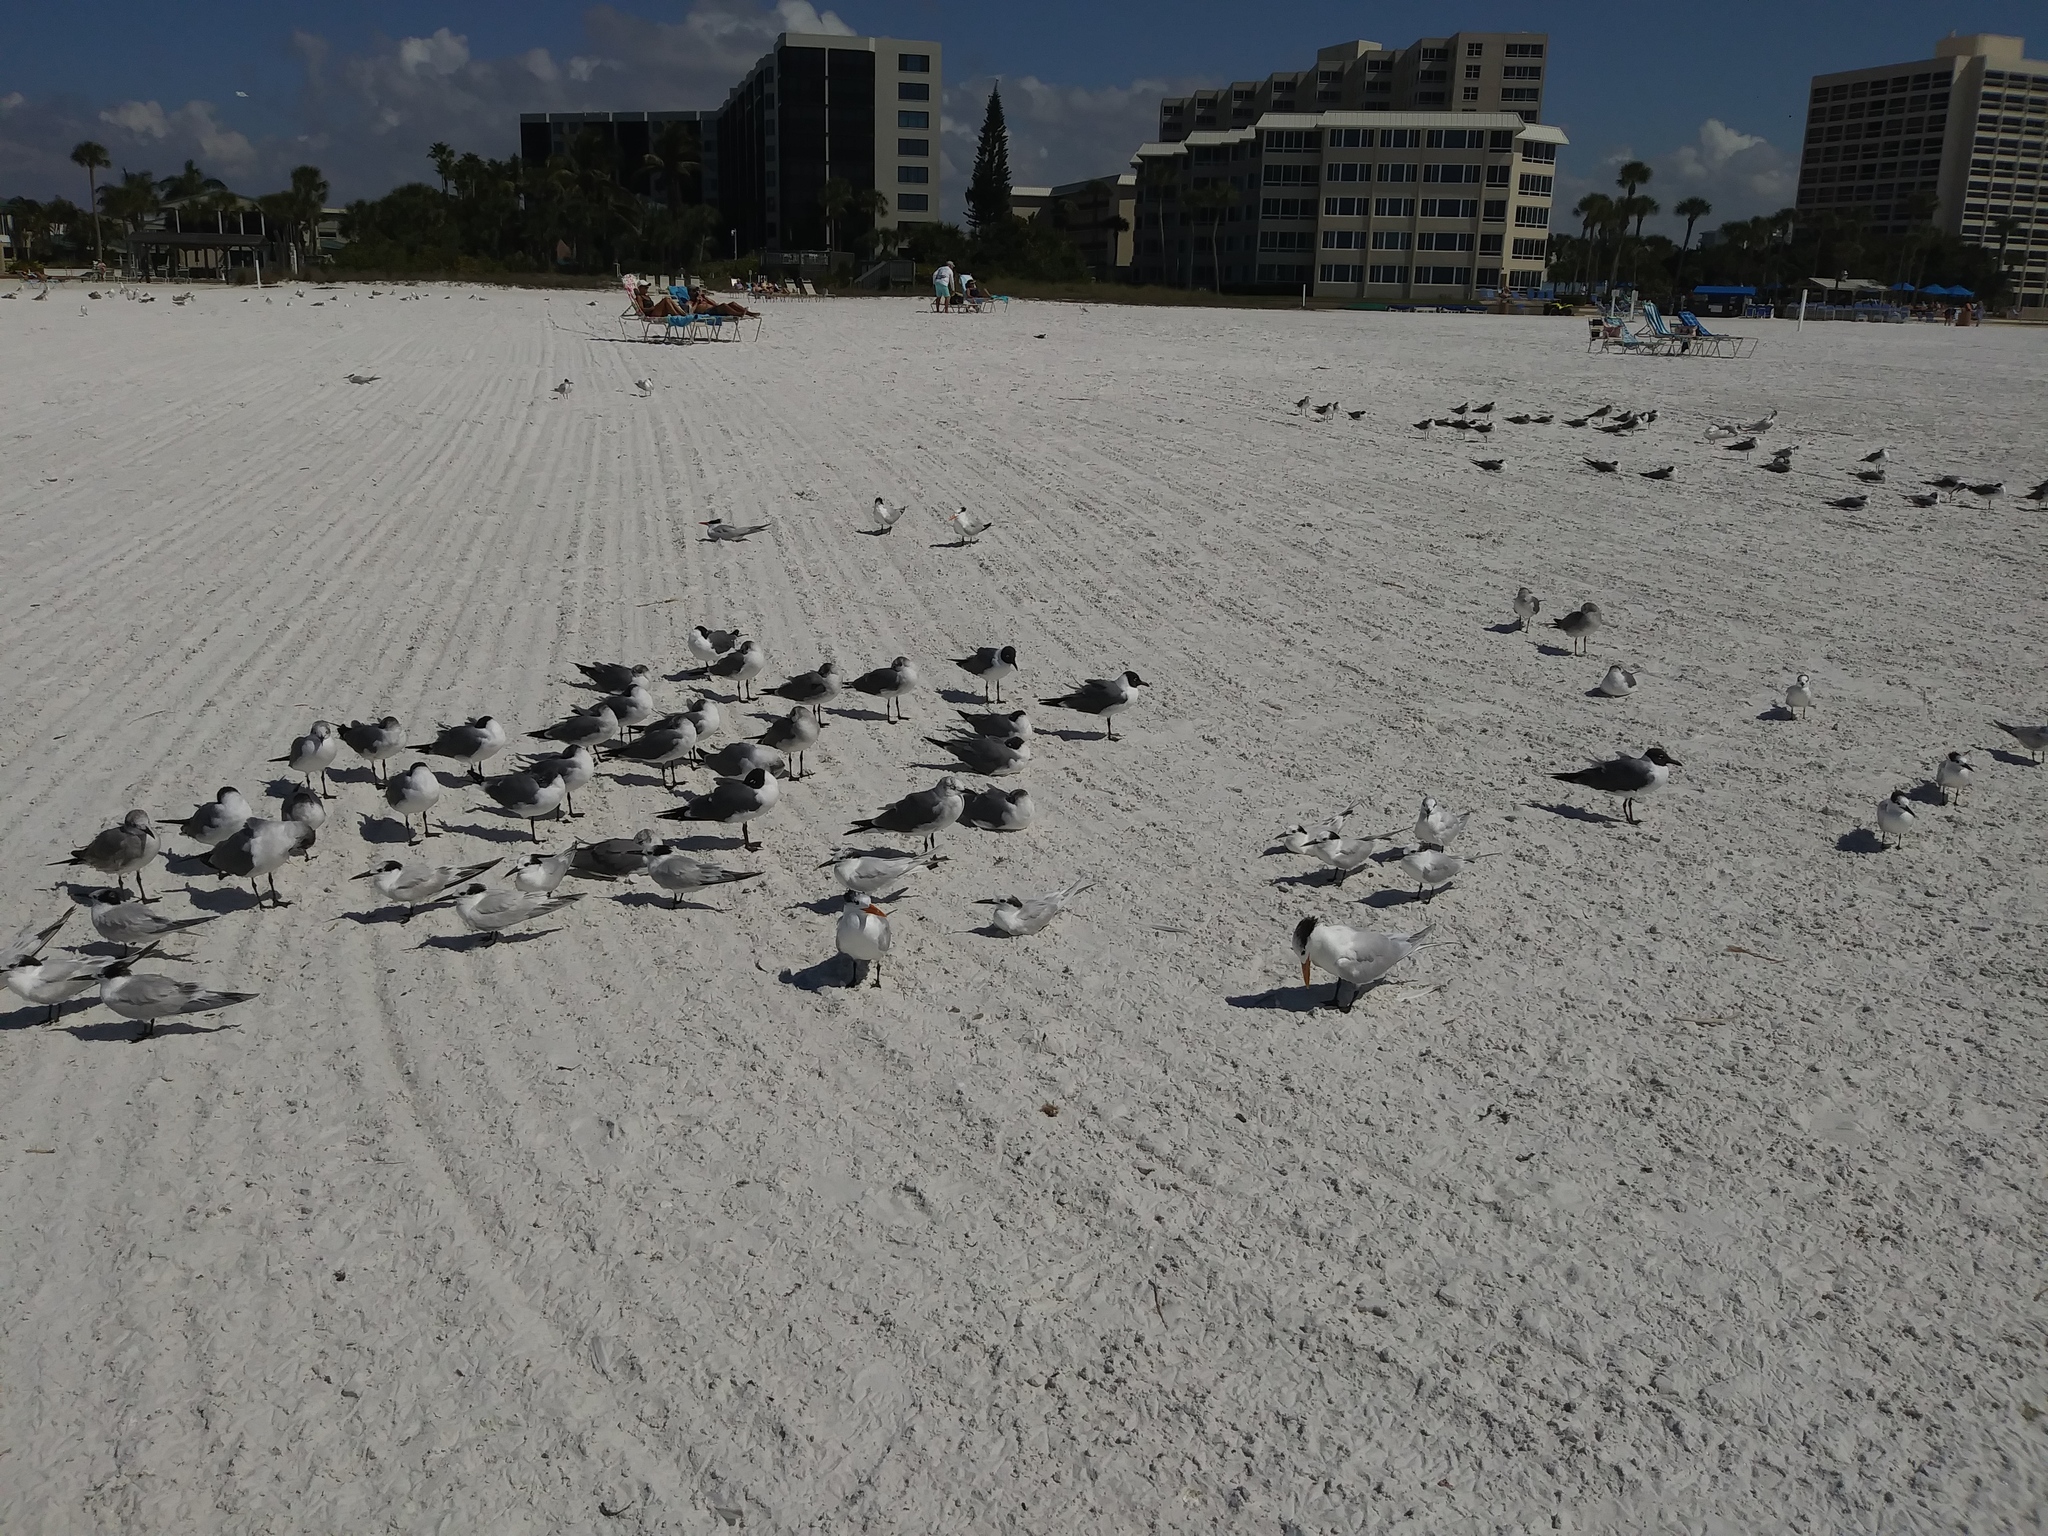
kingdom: Animalia
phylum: Chordata
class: Aves
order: Charadriiformes
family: Laridae
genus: Thalasseus
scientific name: Thalasseus maximus
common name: Royal tern
